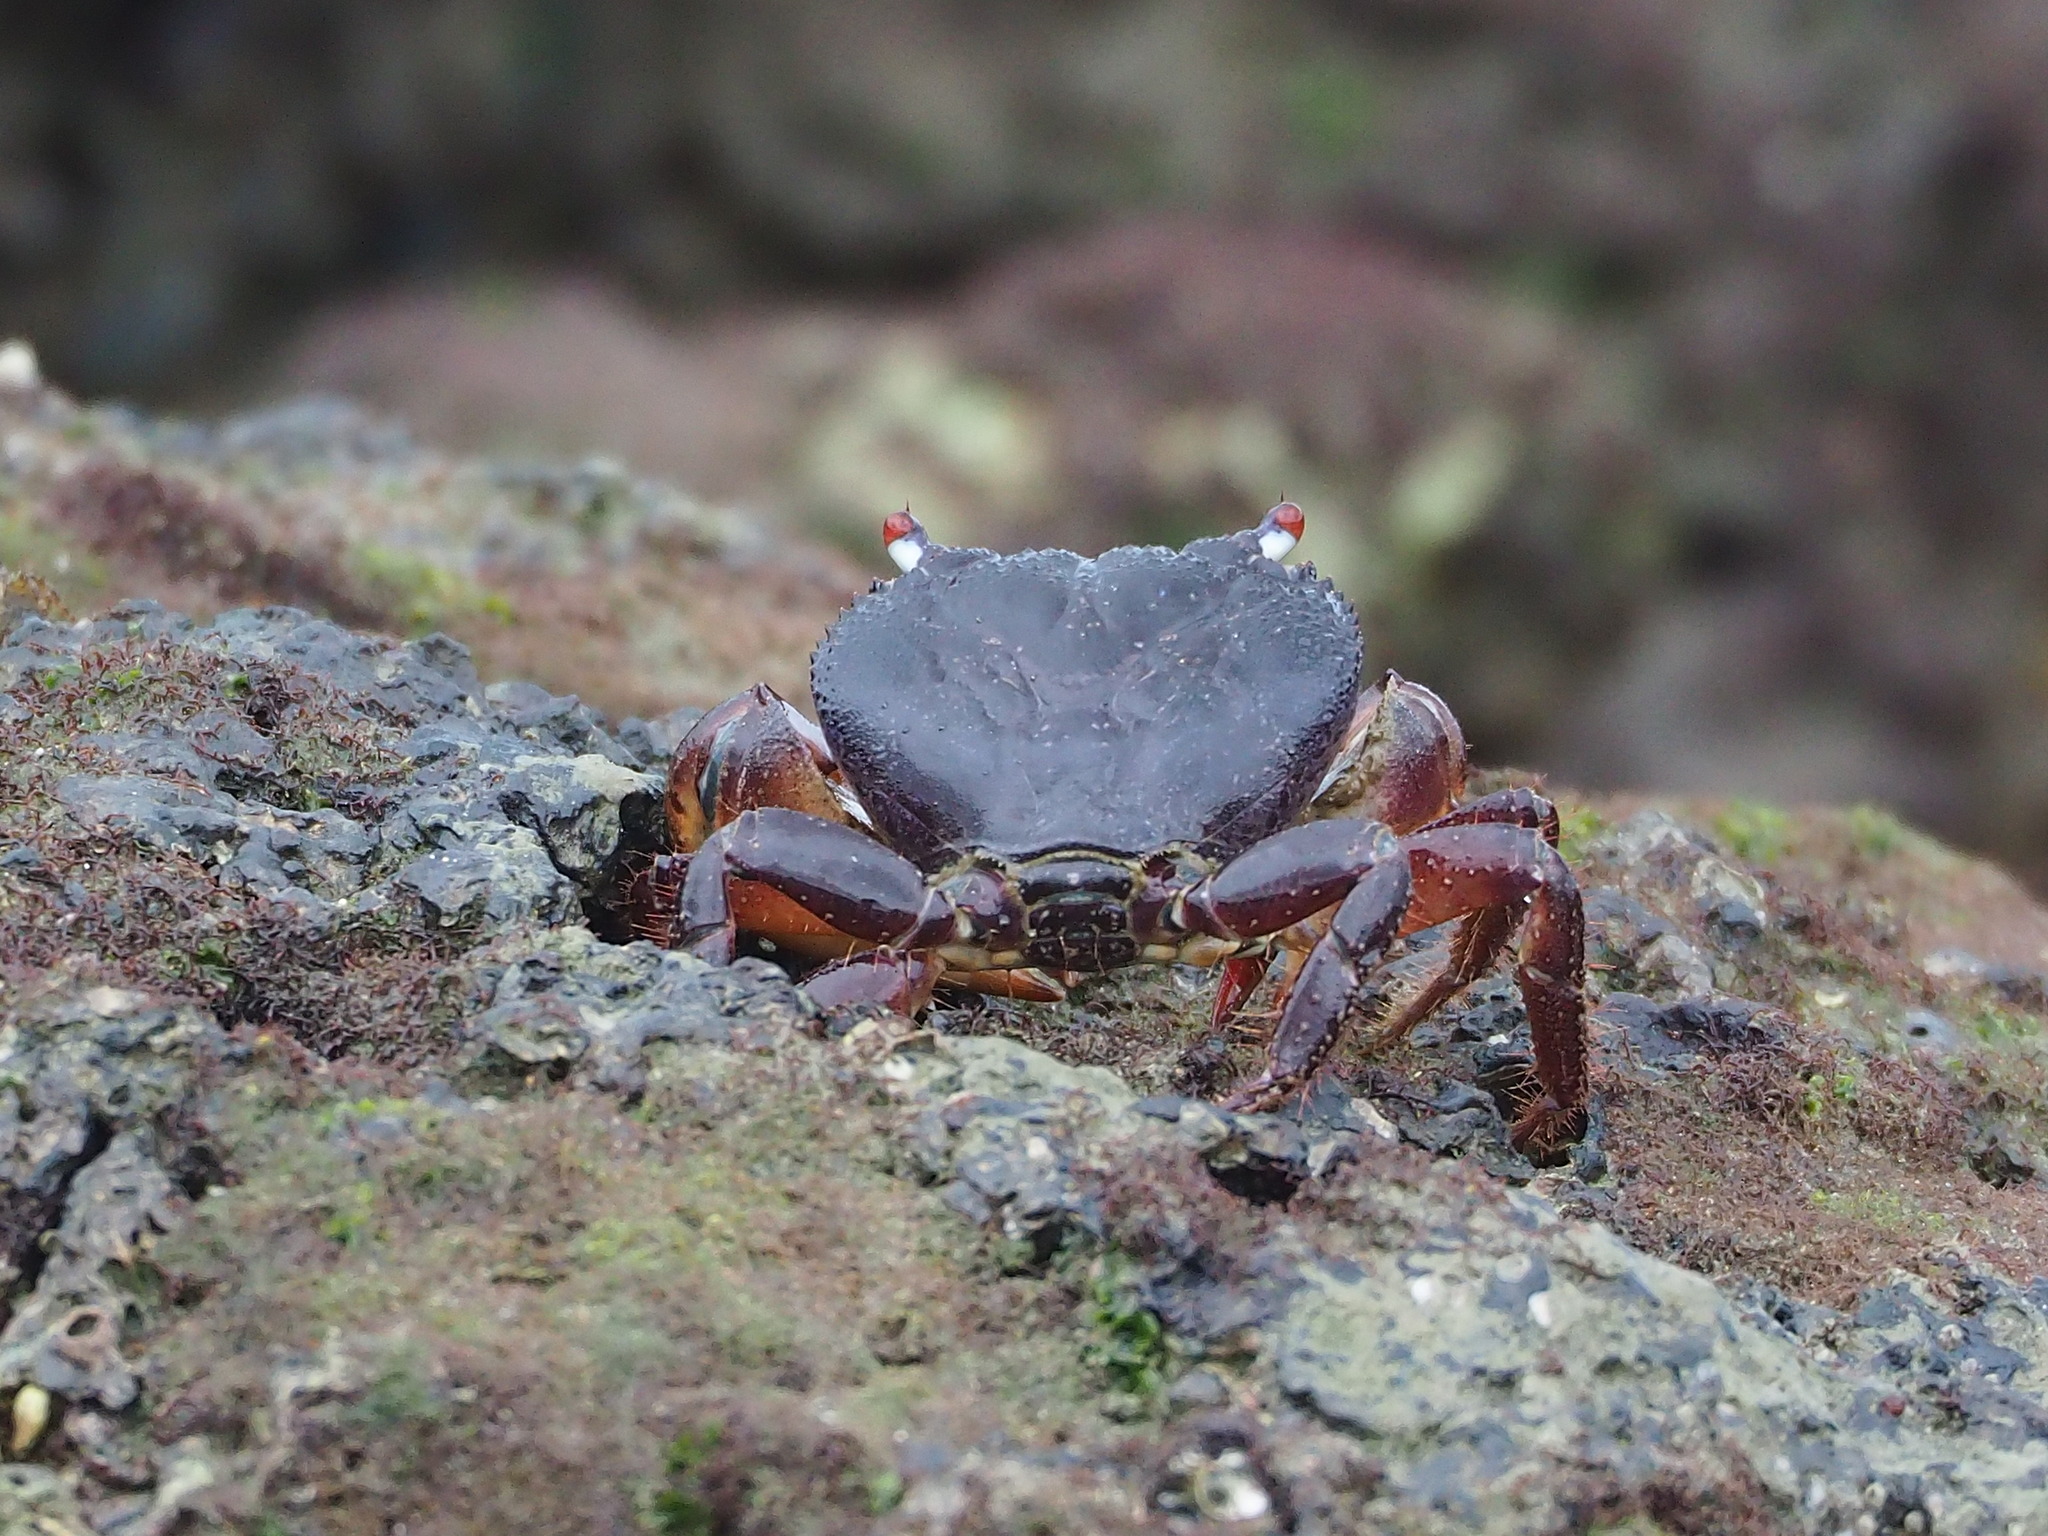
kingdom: Animalia
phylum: Arthropoda
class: Malacostraca
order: Decapoda
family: Eriphiidae
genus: Eriphia
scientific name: Eriphia ferox
